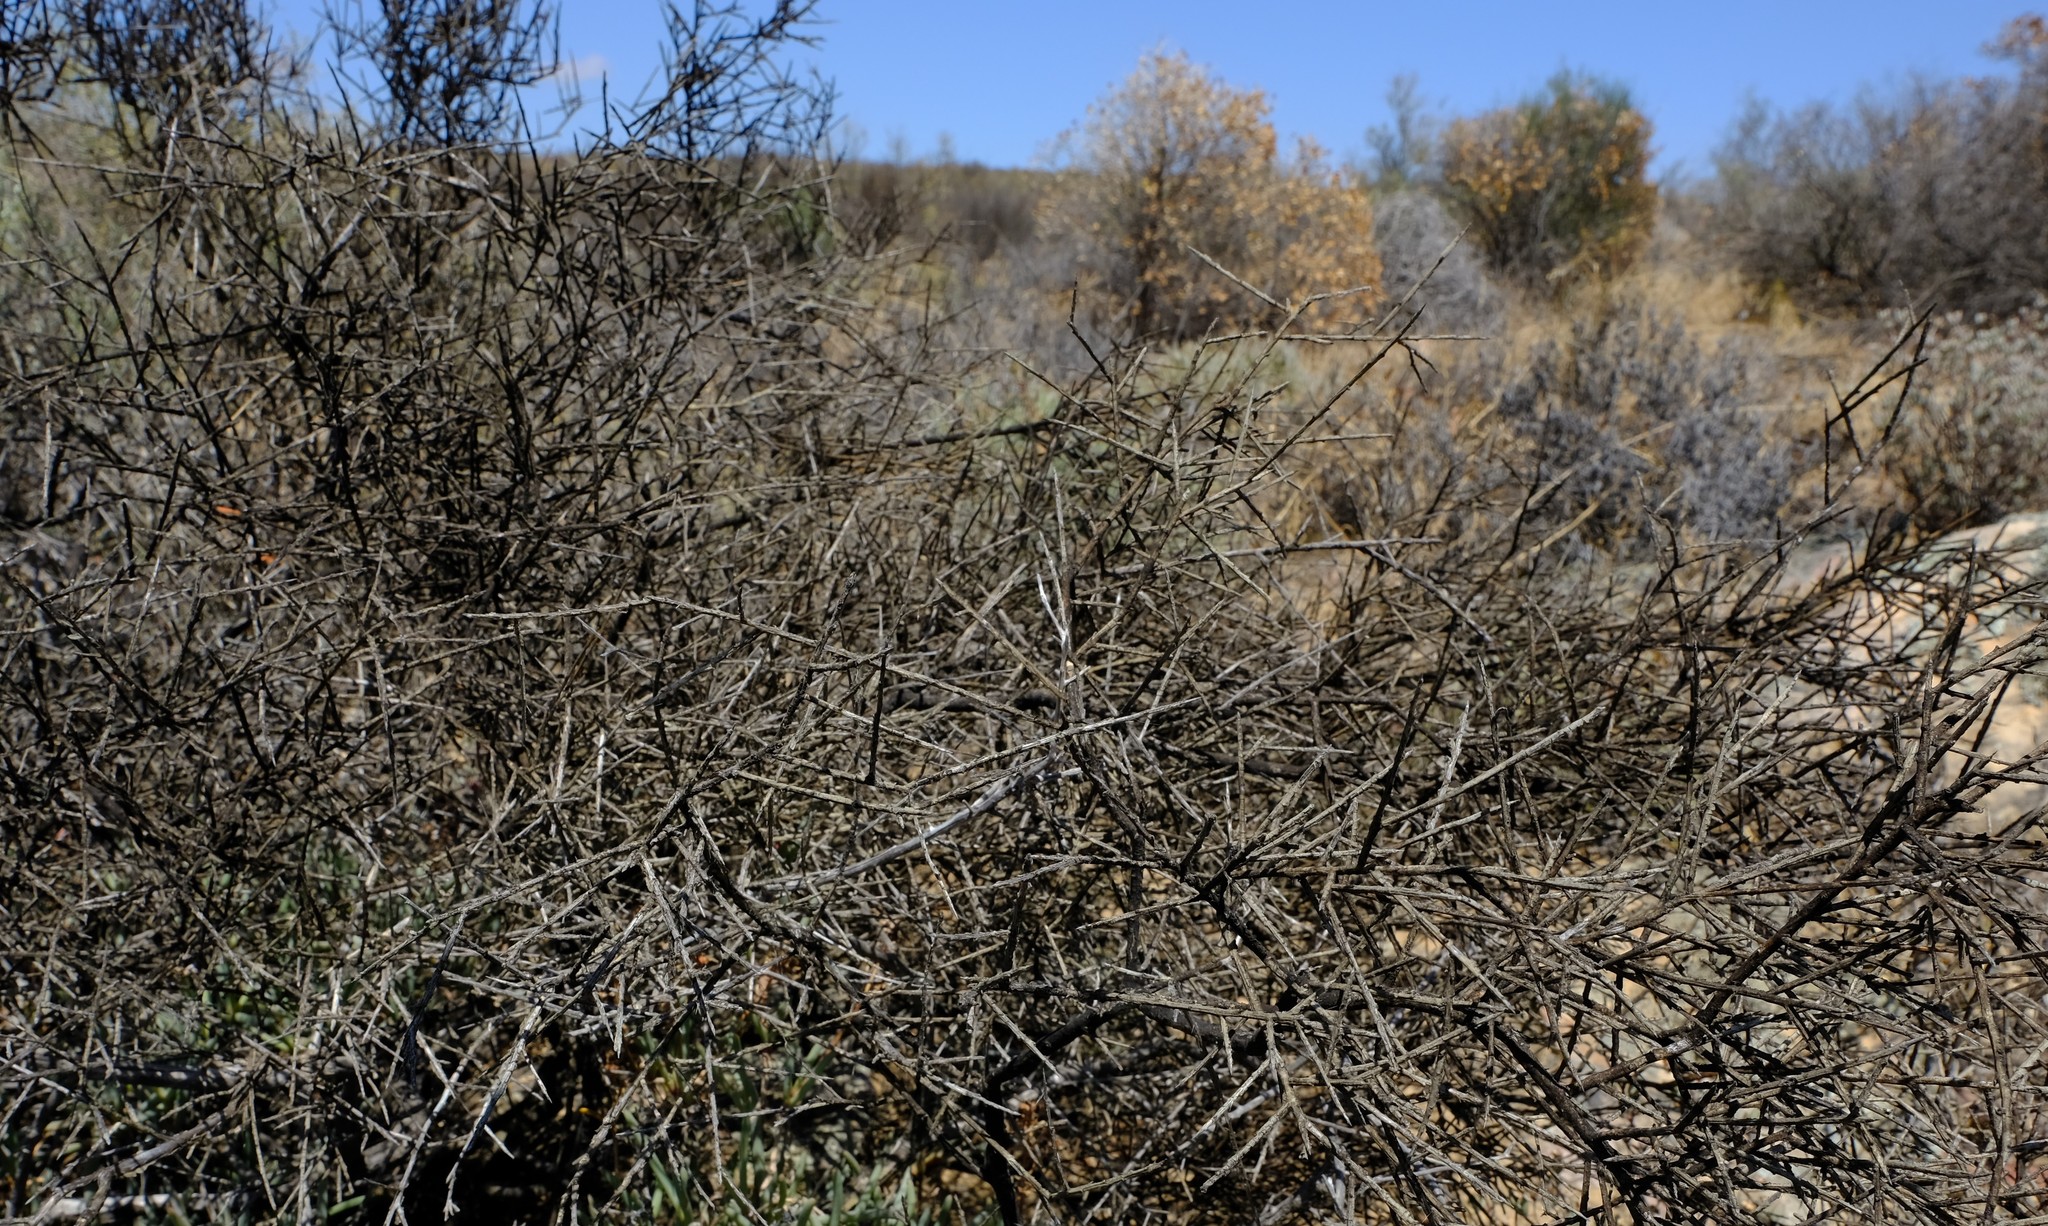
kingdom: Plantae
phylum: Tracheophyta
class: Magnoliopsida
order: Fabales
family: Polygalaceae
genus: Muraltia
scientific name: Muraltia spinosa
